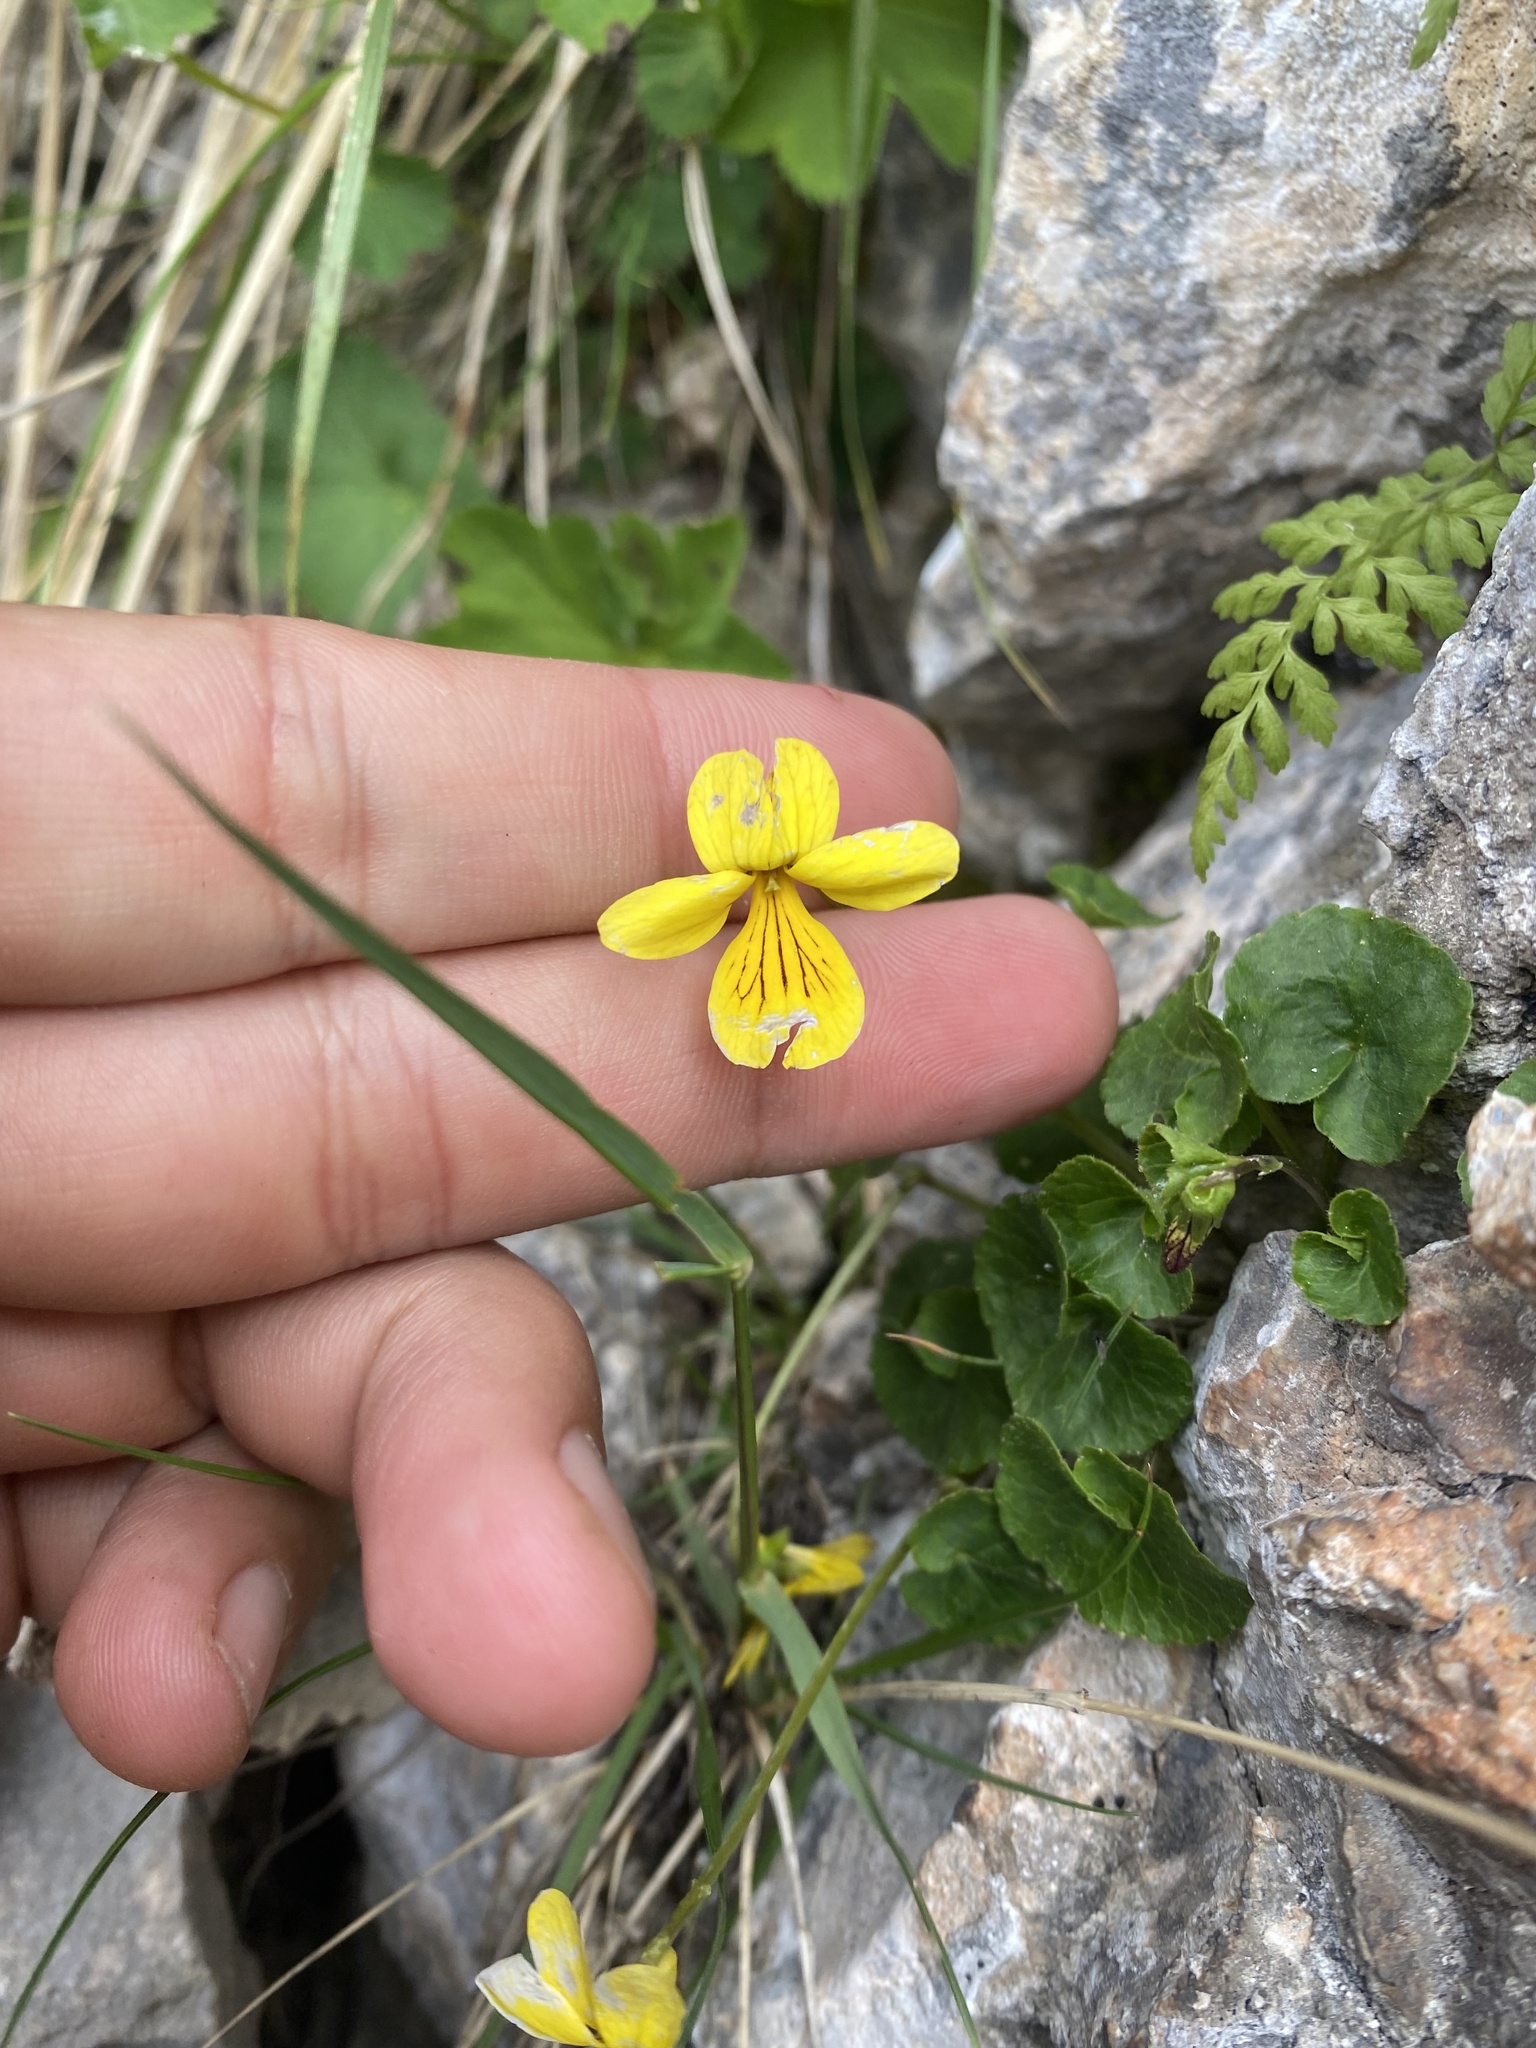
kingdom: Plantae
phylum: Tracheophyta
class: Magnoliopsida
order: Malpighiales
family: Violaceae
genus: Viola
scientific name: Viola caucasica
